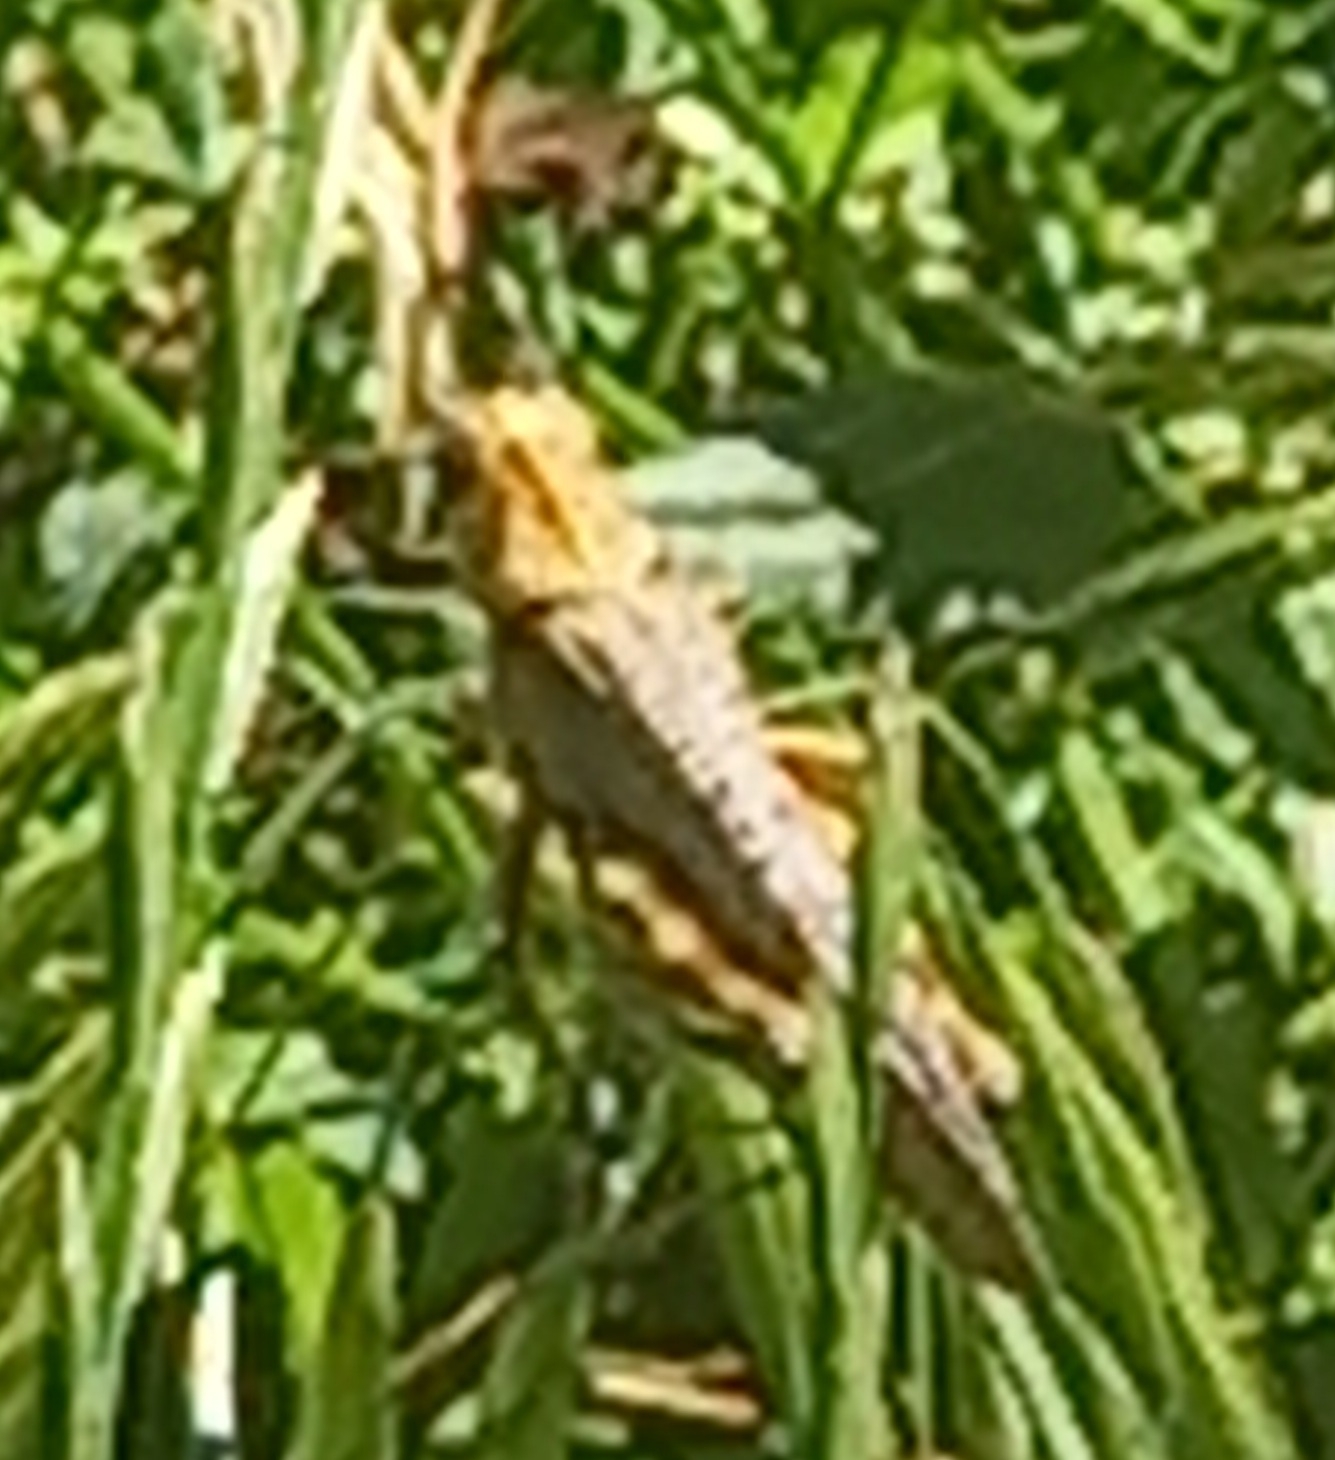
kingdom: Animalia
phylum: Arthropoda
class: Insecta
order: Orthoptera
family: Acrididae
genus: Anacridium
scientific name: Anacridium aegyptium
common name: Egyptian grasshopper
